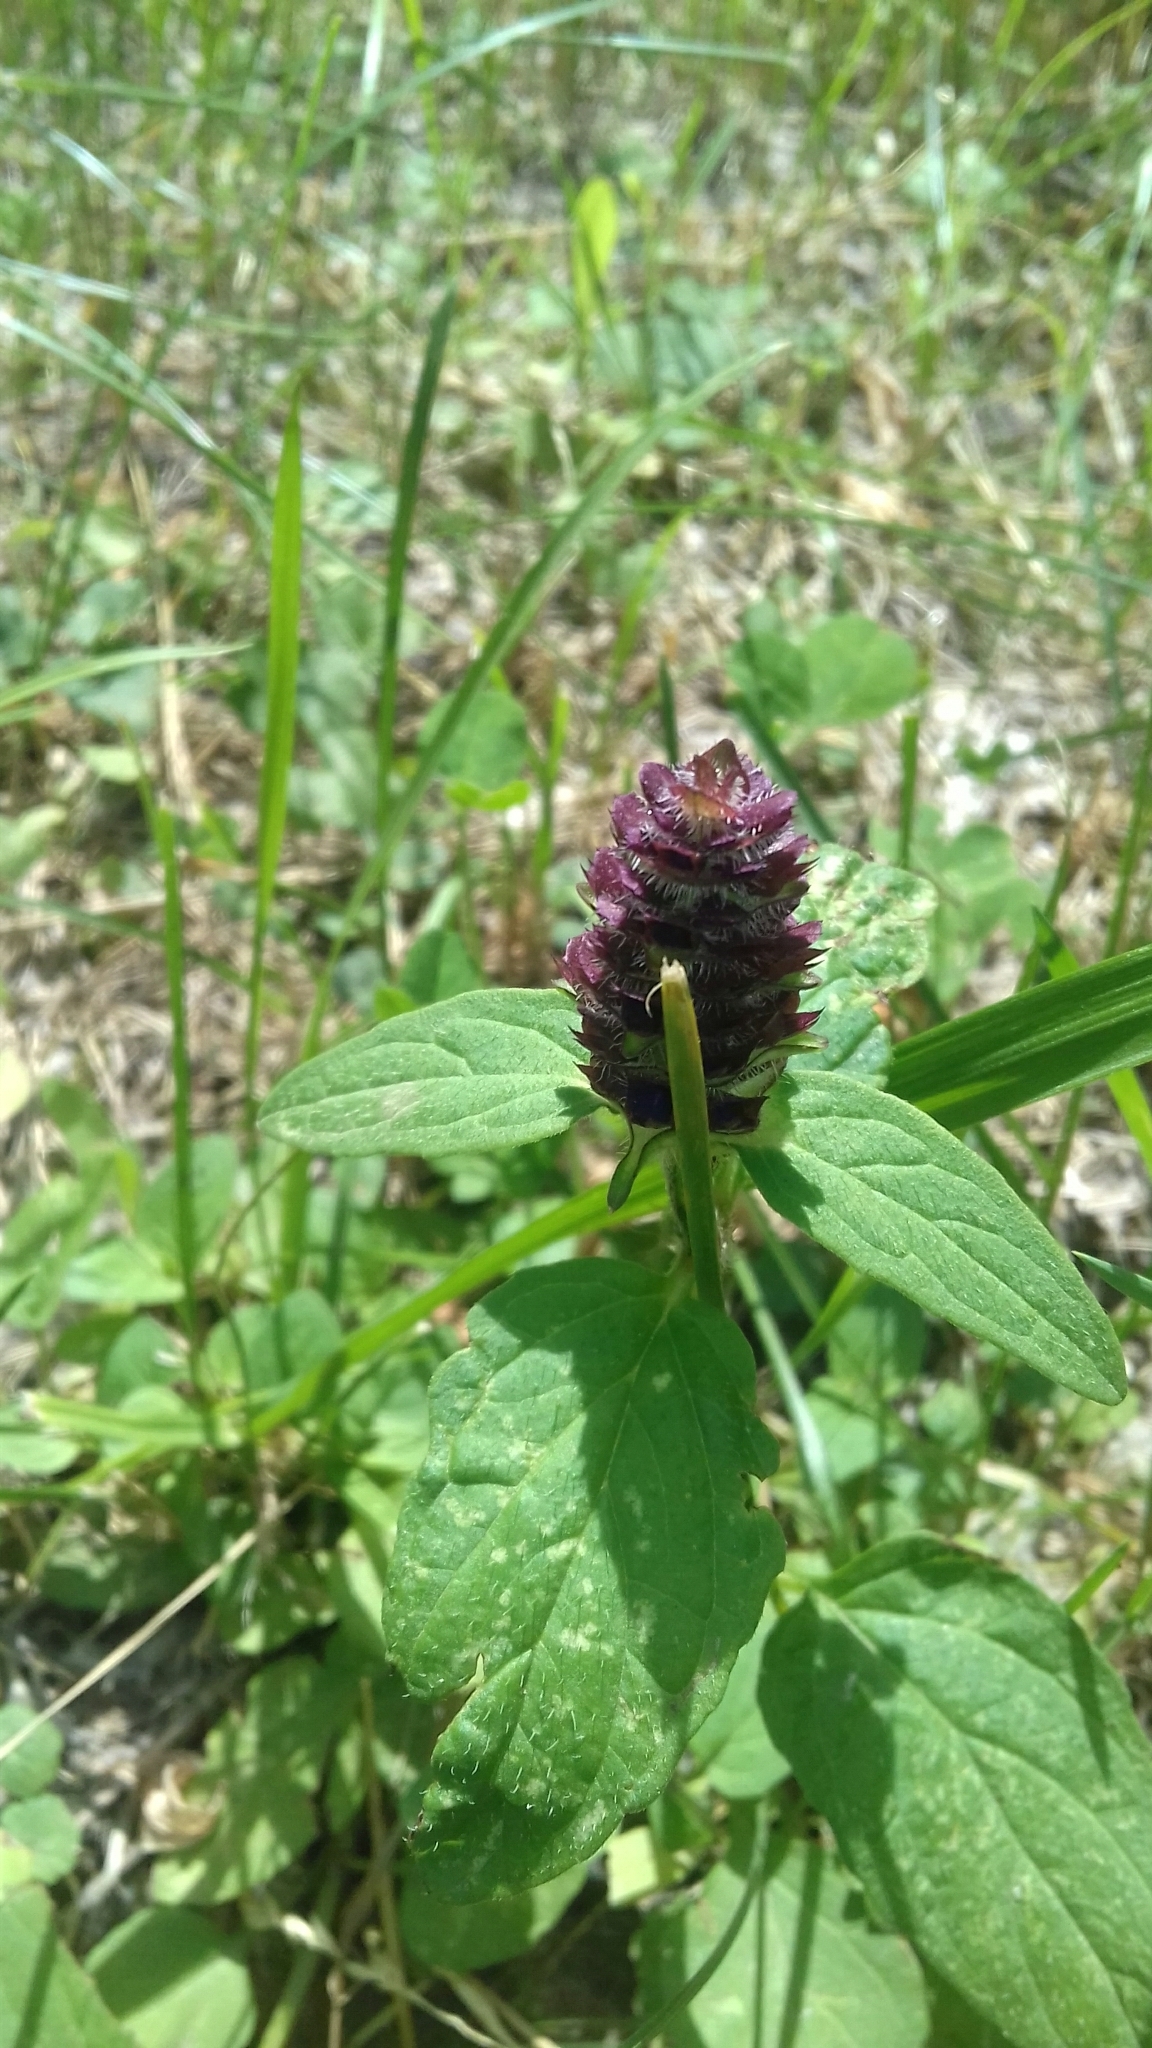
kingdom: Plantae
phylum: Tracheophyta
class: Magnoliopsida
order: Lamiales
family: Lamiaceae
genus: Prunella
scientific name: Prunella vulgaris
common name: Heal-all
